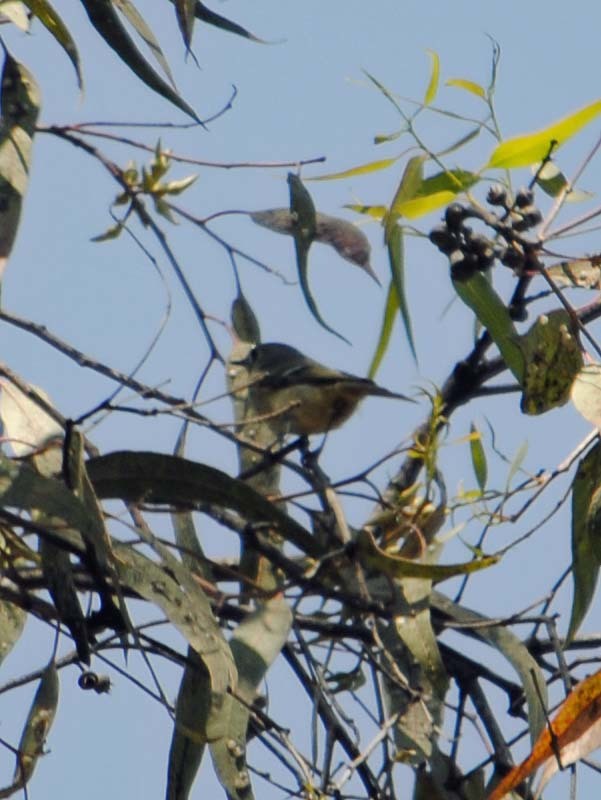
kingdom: Animalia
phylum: Chordata
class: Aves
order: Passeriformes
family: Regulidae
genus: Regulus
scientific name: Regulus calendula
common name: Ruby-crowned kinglet
